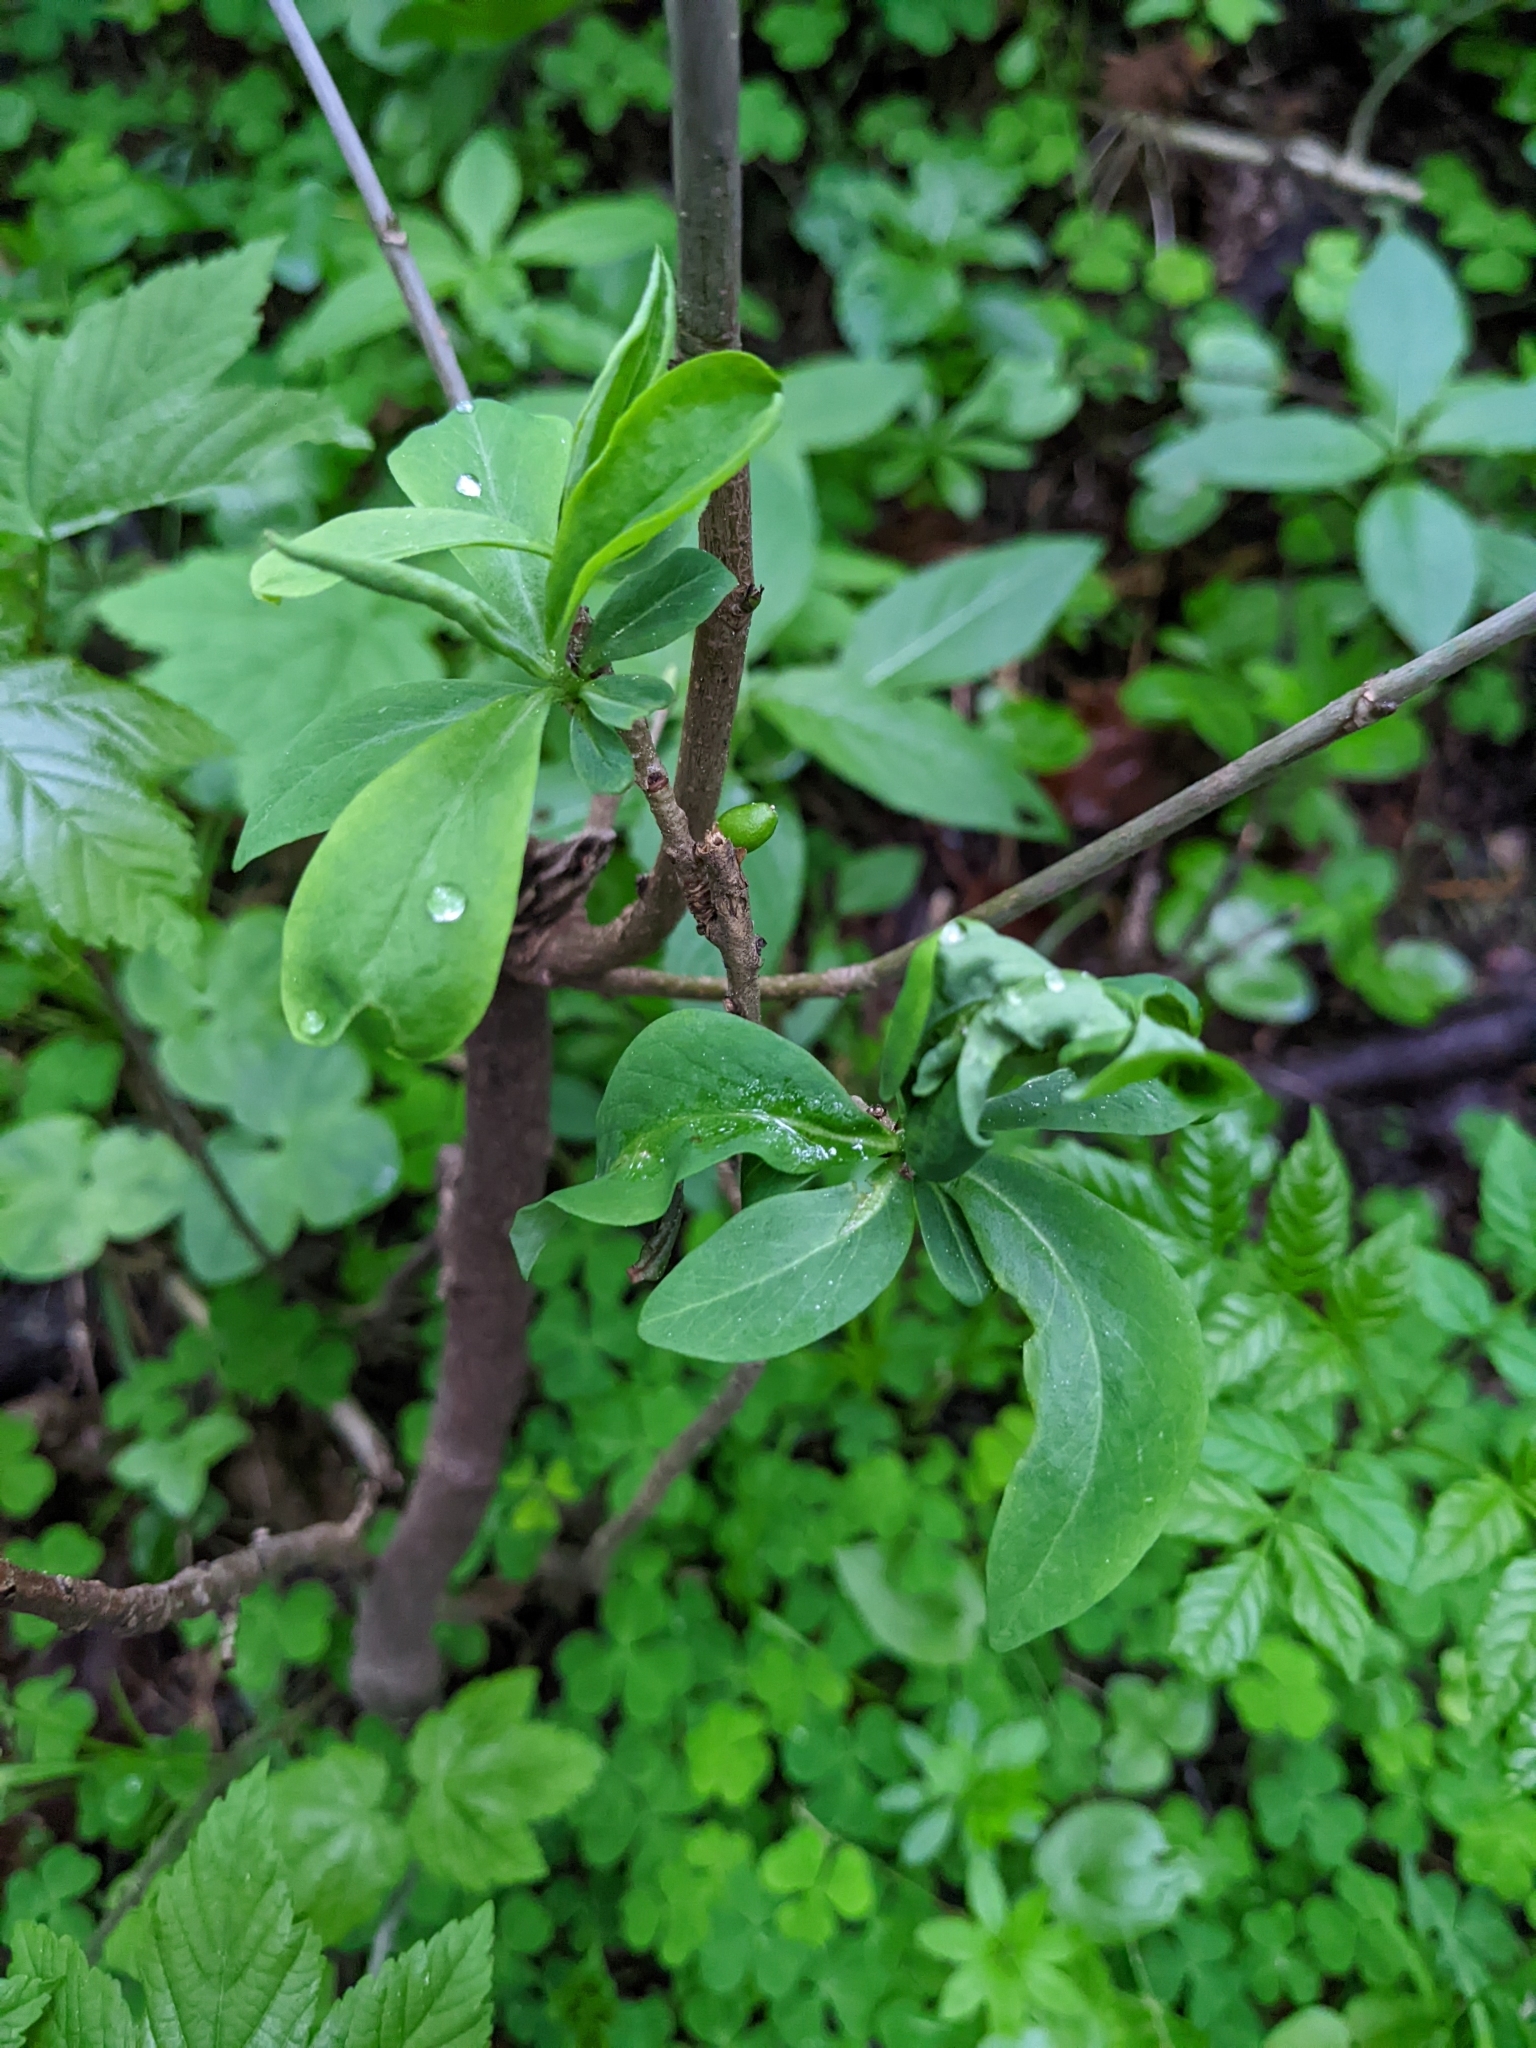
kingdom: Plantae
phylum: Tracheophyta
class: Magnoliopsida
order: Malvales
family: Thymelaeaceae
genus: Daphne
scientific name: Daphne mezereum
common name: Mezereon
